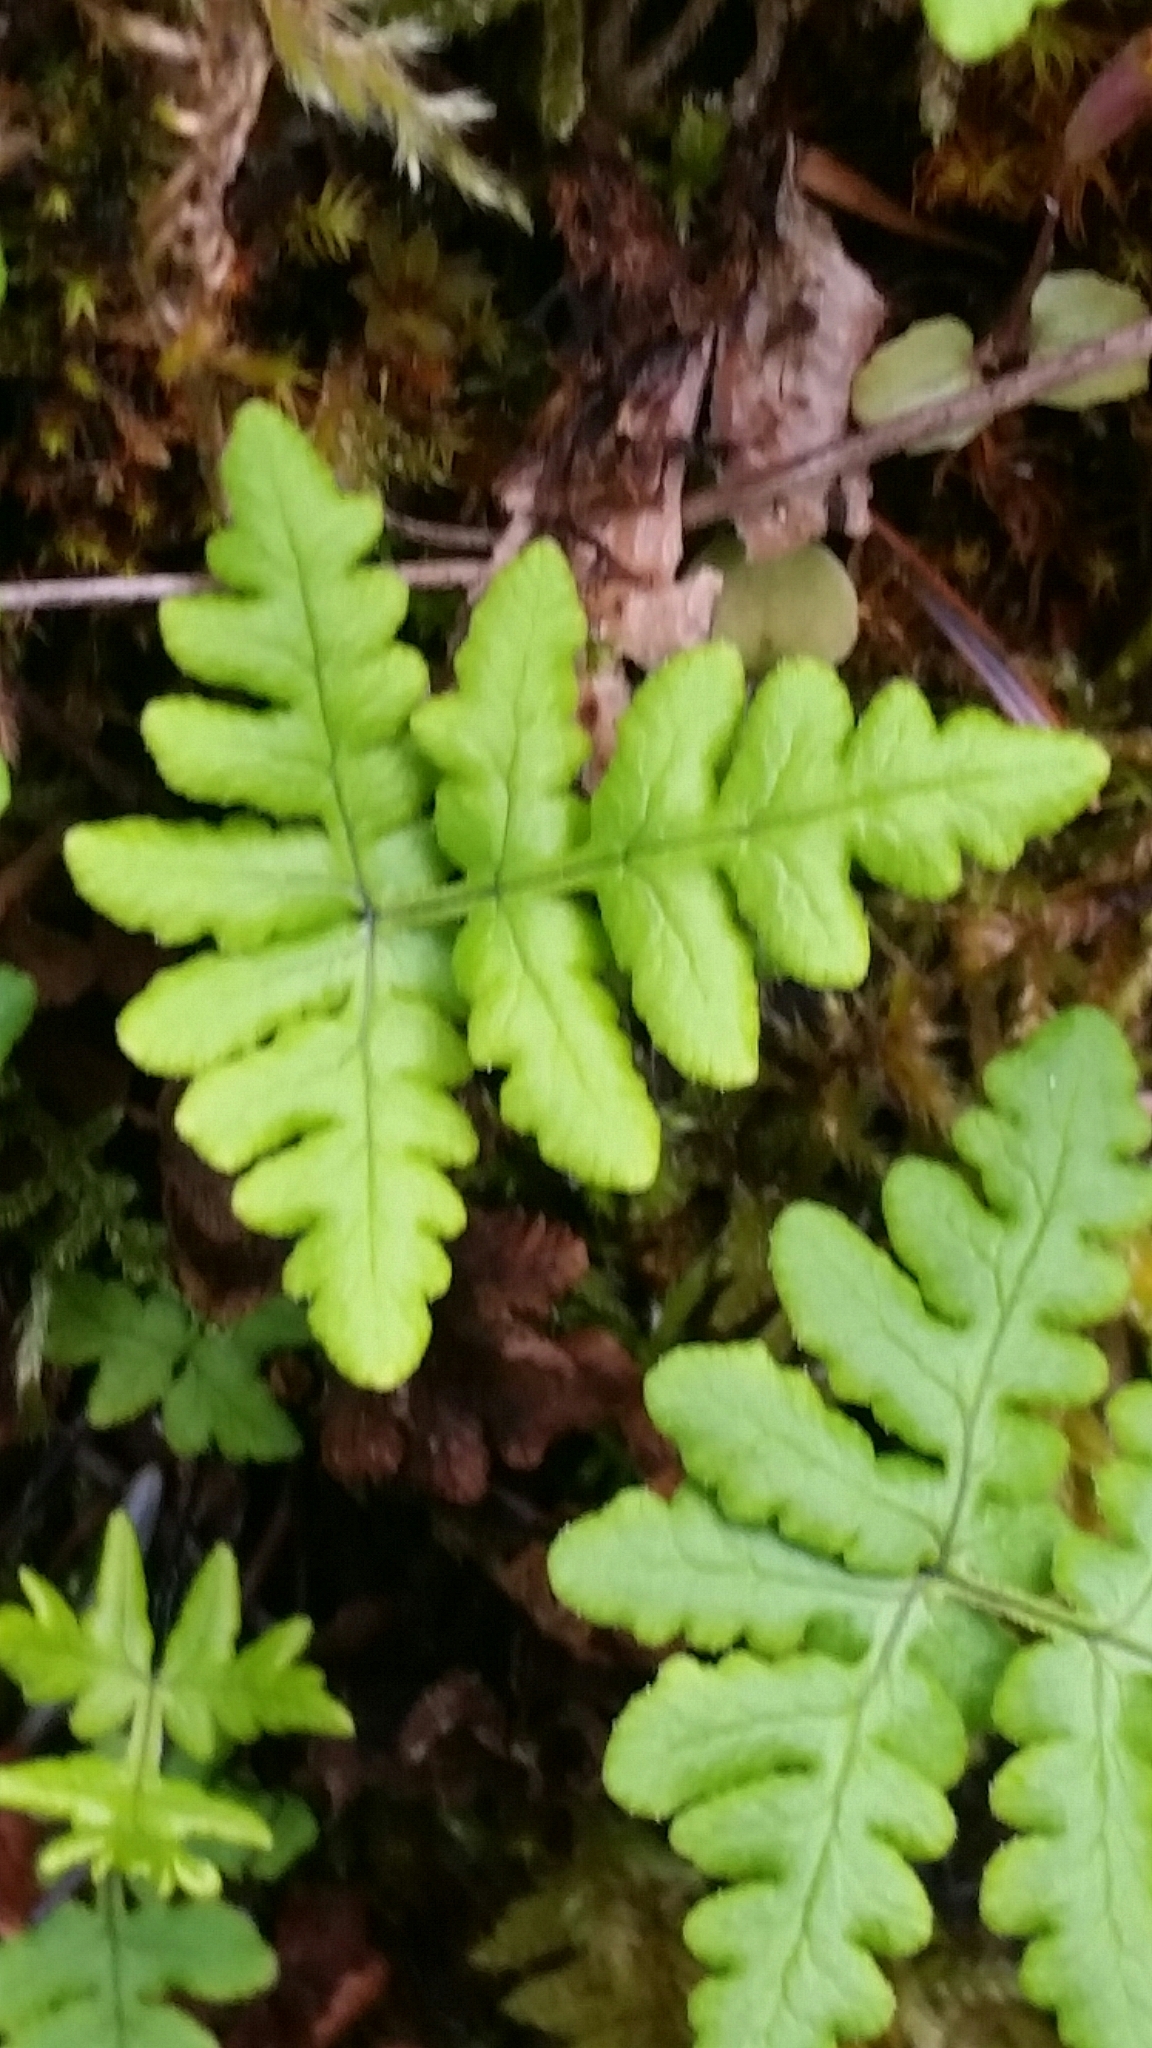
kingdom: Plantae
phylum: Tracheophyta
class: Polypodiopsida
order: Polypodiales
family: Pteridaceae
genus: Pentagramma
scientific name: Pentagramma triangularis
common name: Gold fern
